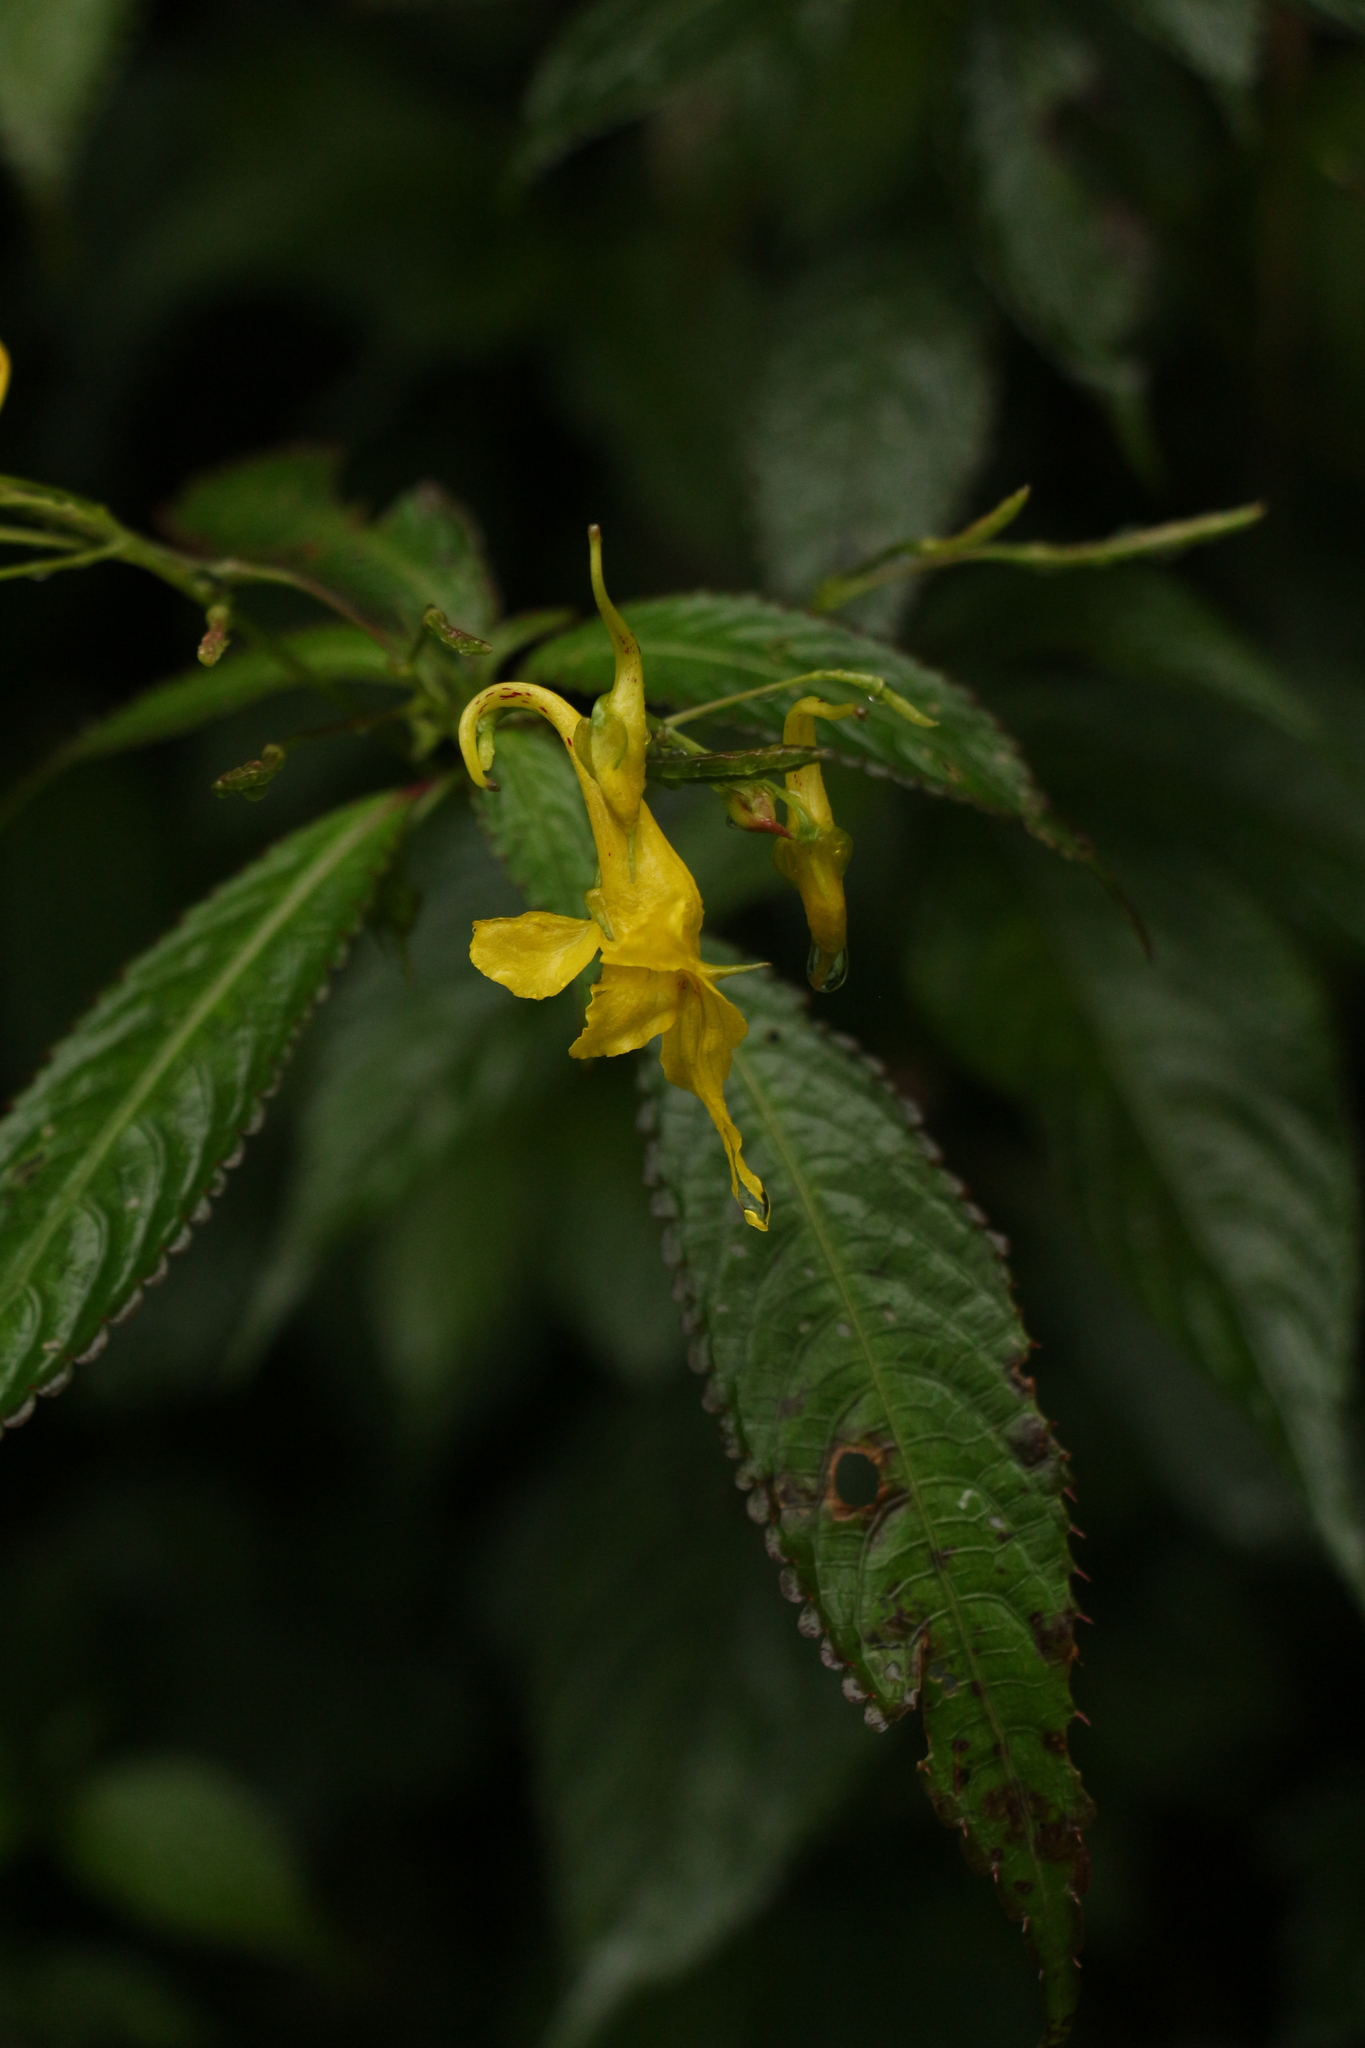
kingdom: Plantae
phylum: Tracheophyta
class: Magnoliopsida
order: Ericales
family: Balsaminaceae
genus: Impatiens
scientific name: Impatiens stenantha
